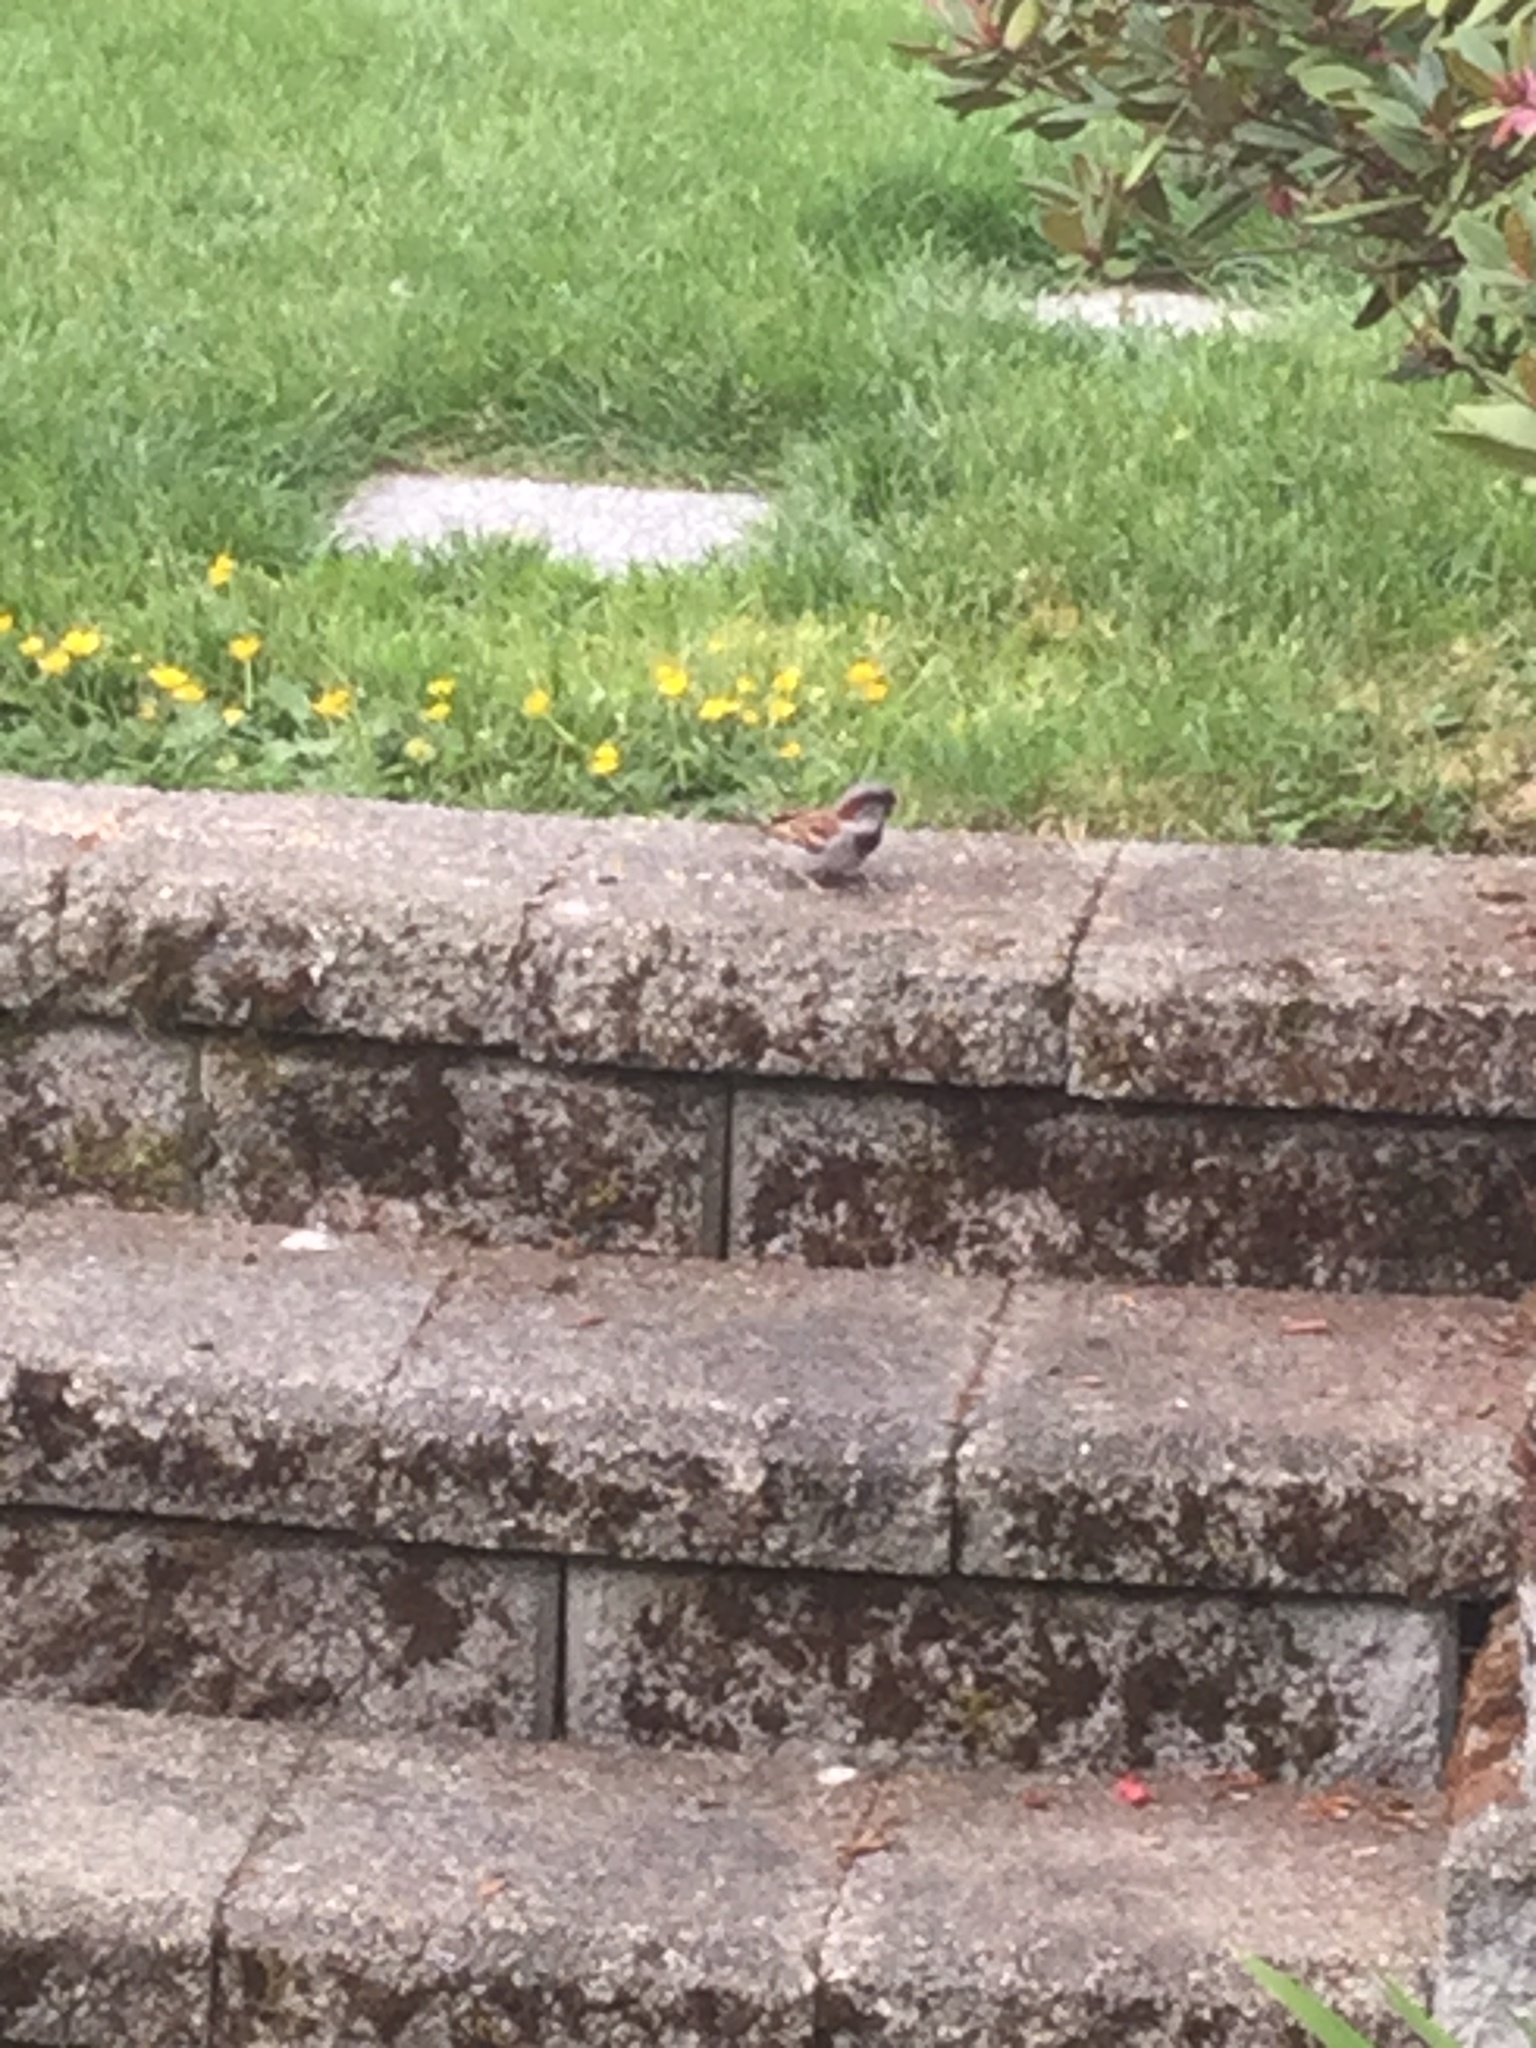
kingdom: Animalia
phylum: Chordata
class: Aves
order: Passeriformes
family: Passeridae
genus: Passer
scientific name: Passer domesticus
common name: House sparrow
